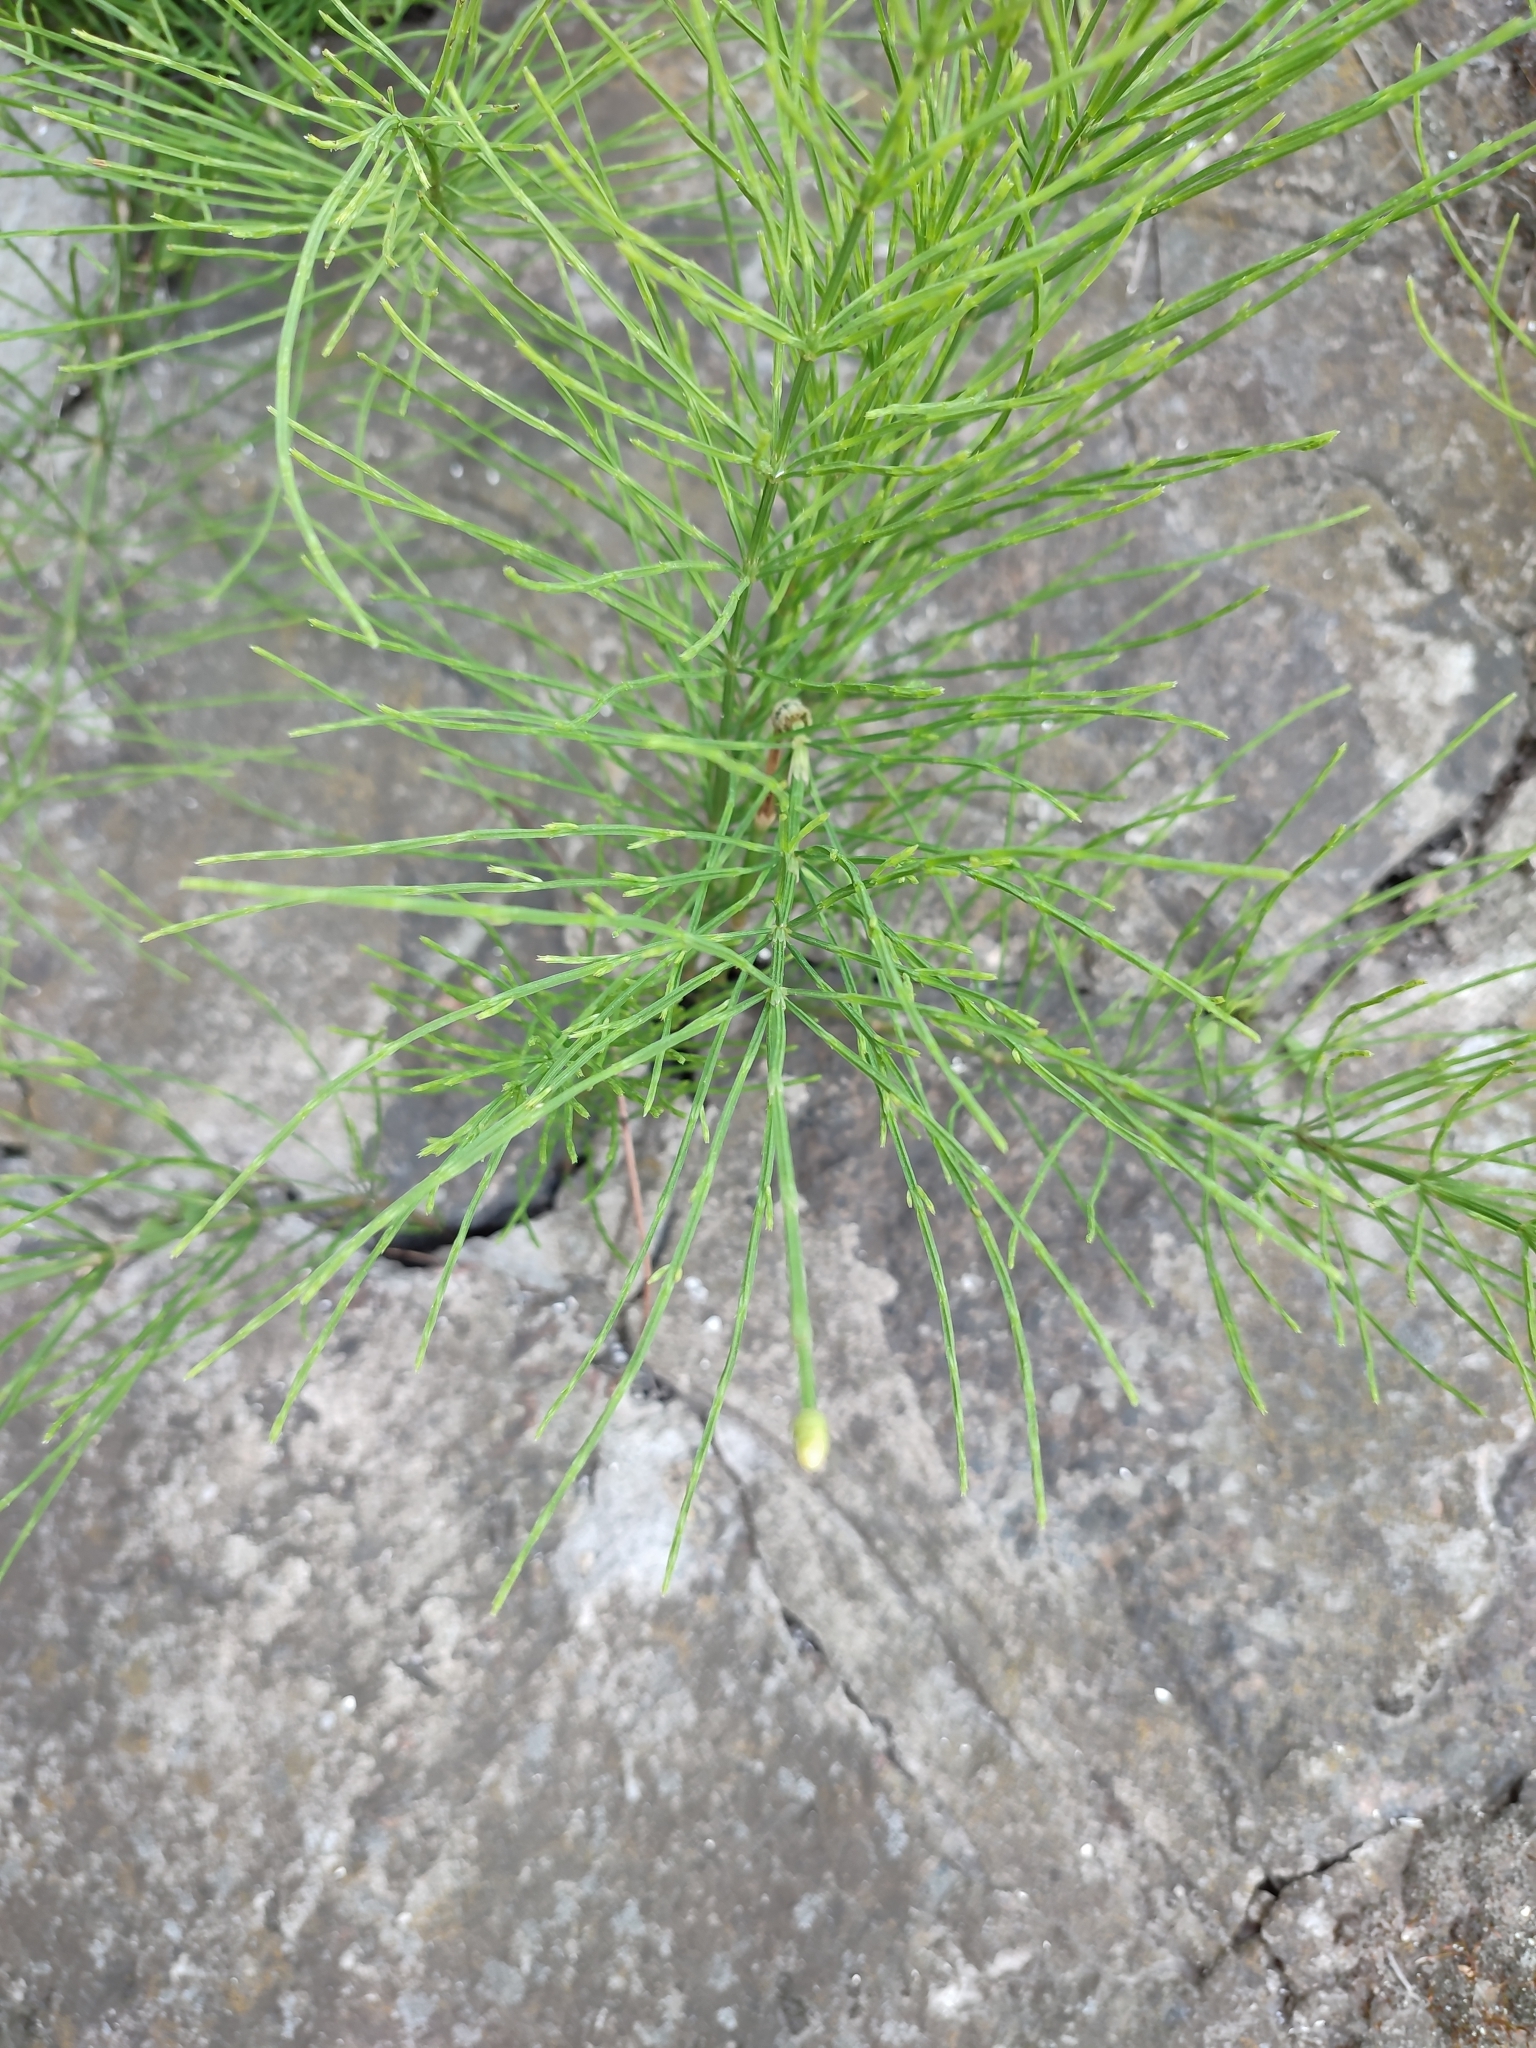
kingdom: Plantae
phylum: Tracheophyta
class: Polypodiopsida
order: Equisetales
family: Equisetaceae
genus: Equisetum
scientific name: Equisetum arvense
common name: Field horsetail
